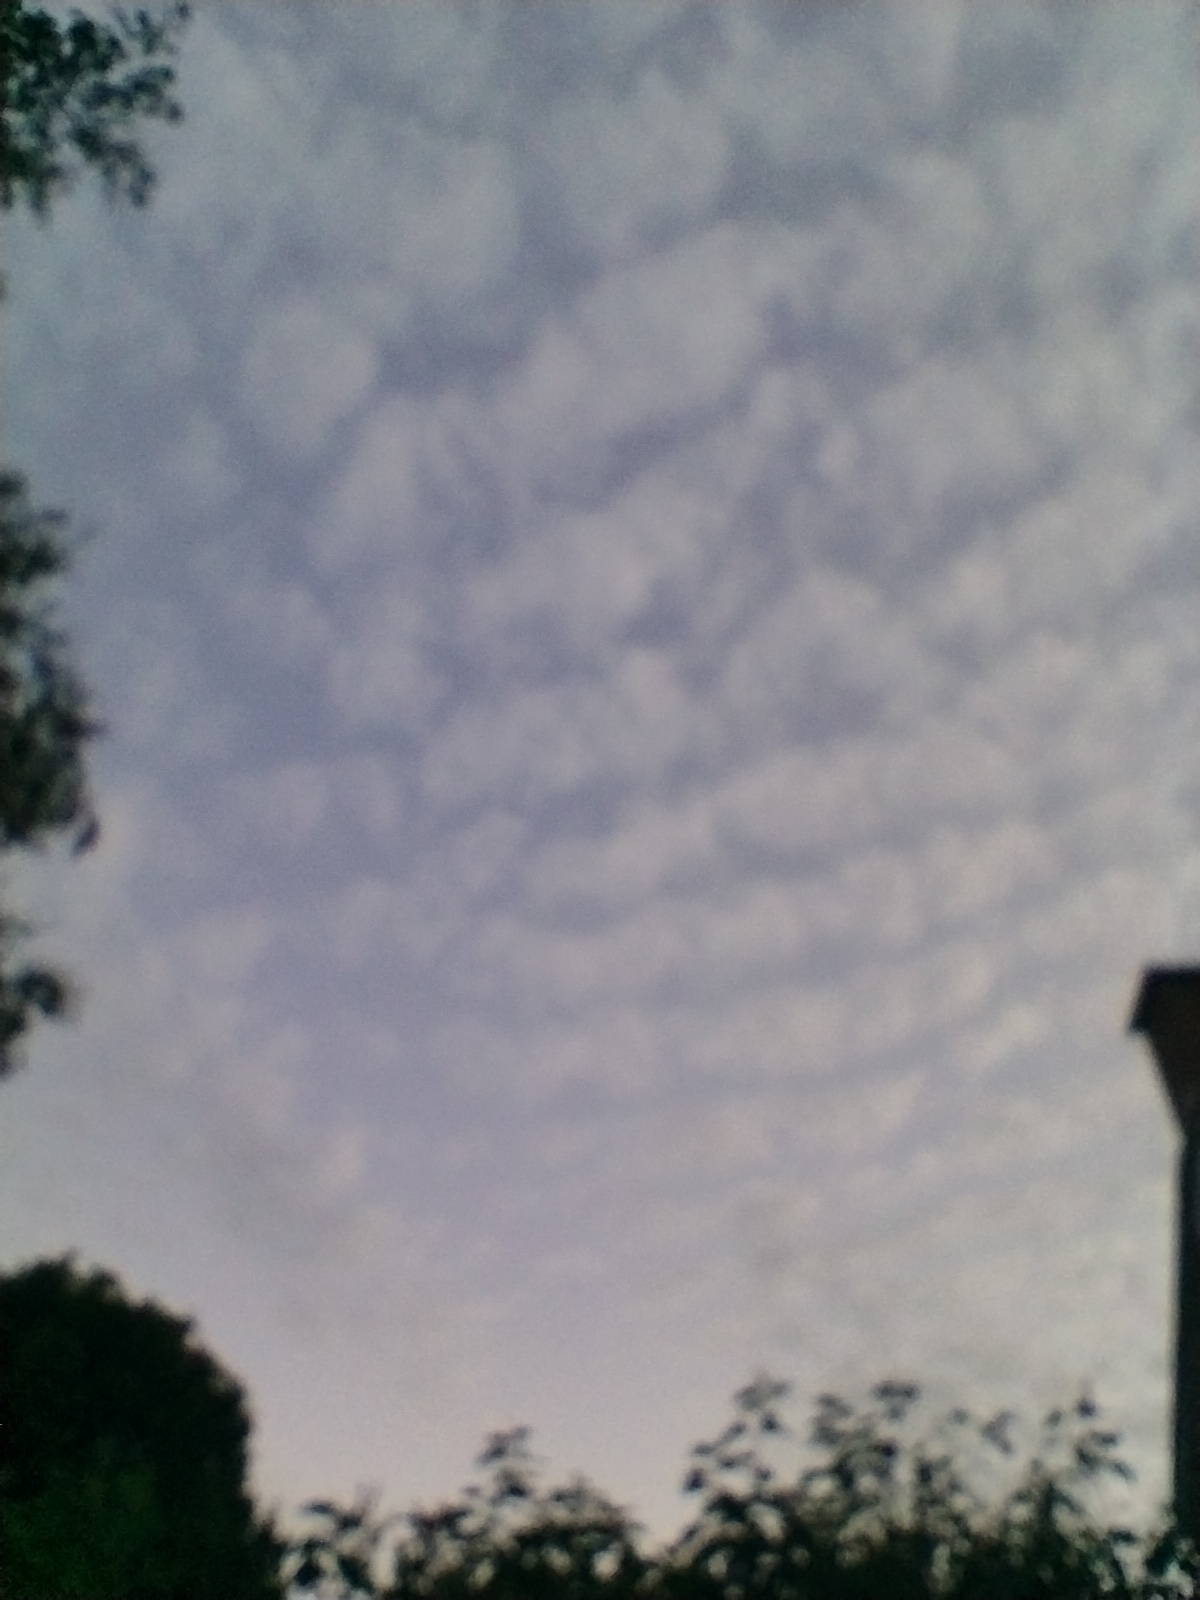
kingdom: Animalia
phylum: Chordata
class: Aves
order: Apodiformes
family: Apodidae
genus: Apus
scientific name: Apus apus
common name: Common swift
